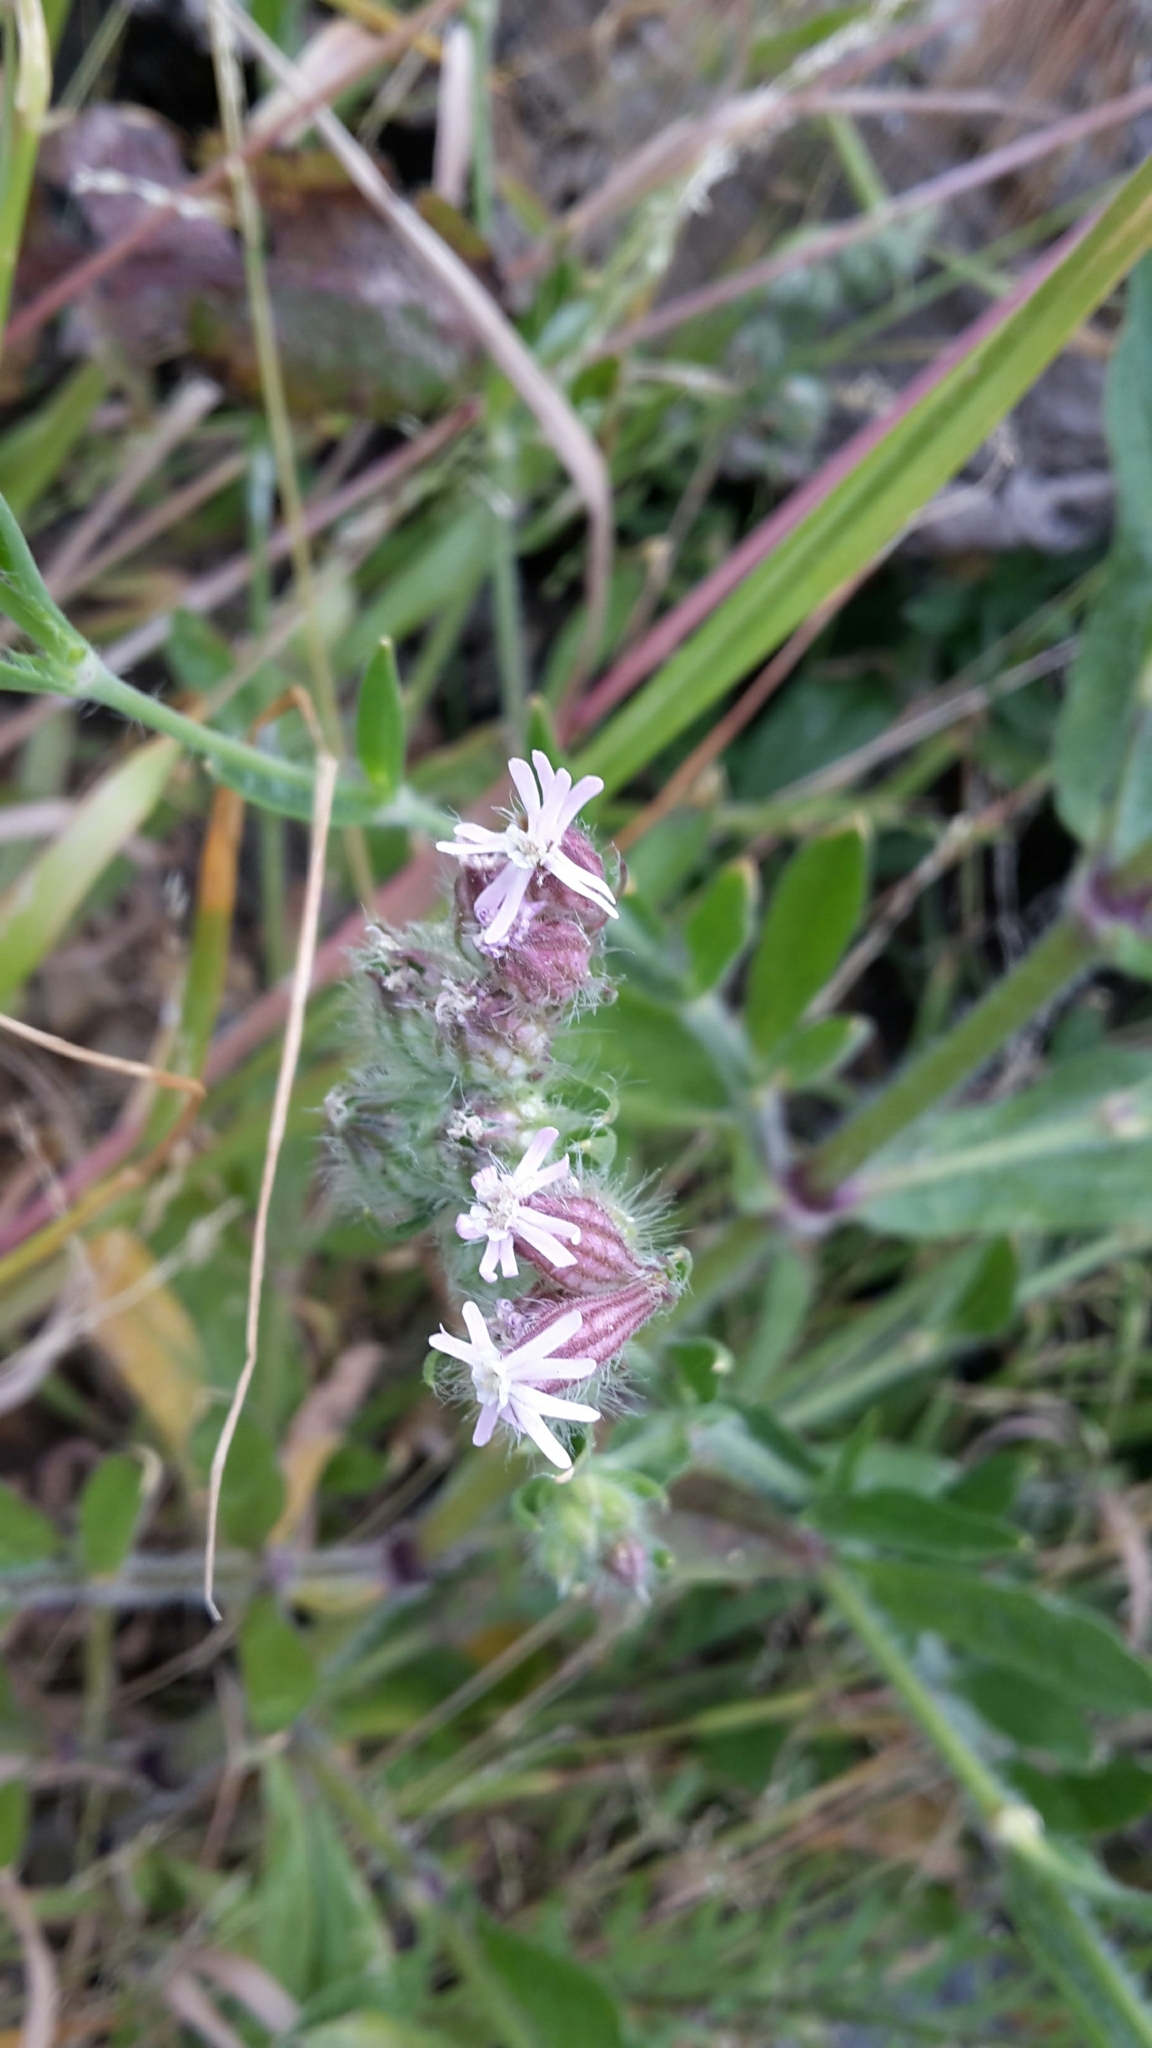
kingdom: Plantae
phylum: Tracheophyta
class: Magnoliopsida
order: Caryophyllales
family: Caryophyllaceae
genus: Silene
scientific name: Silene disticha
